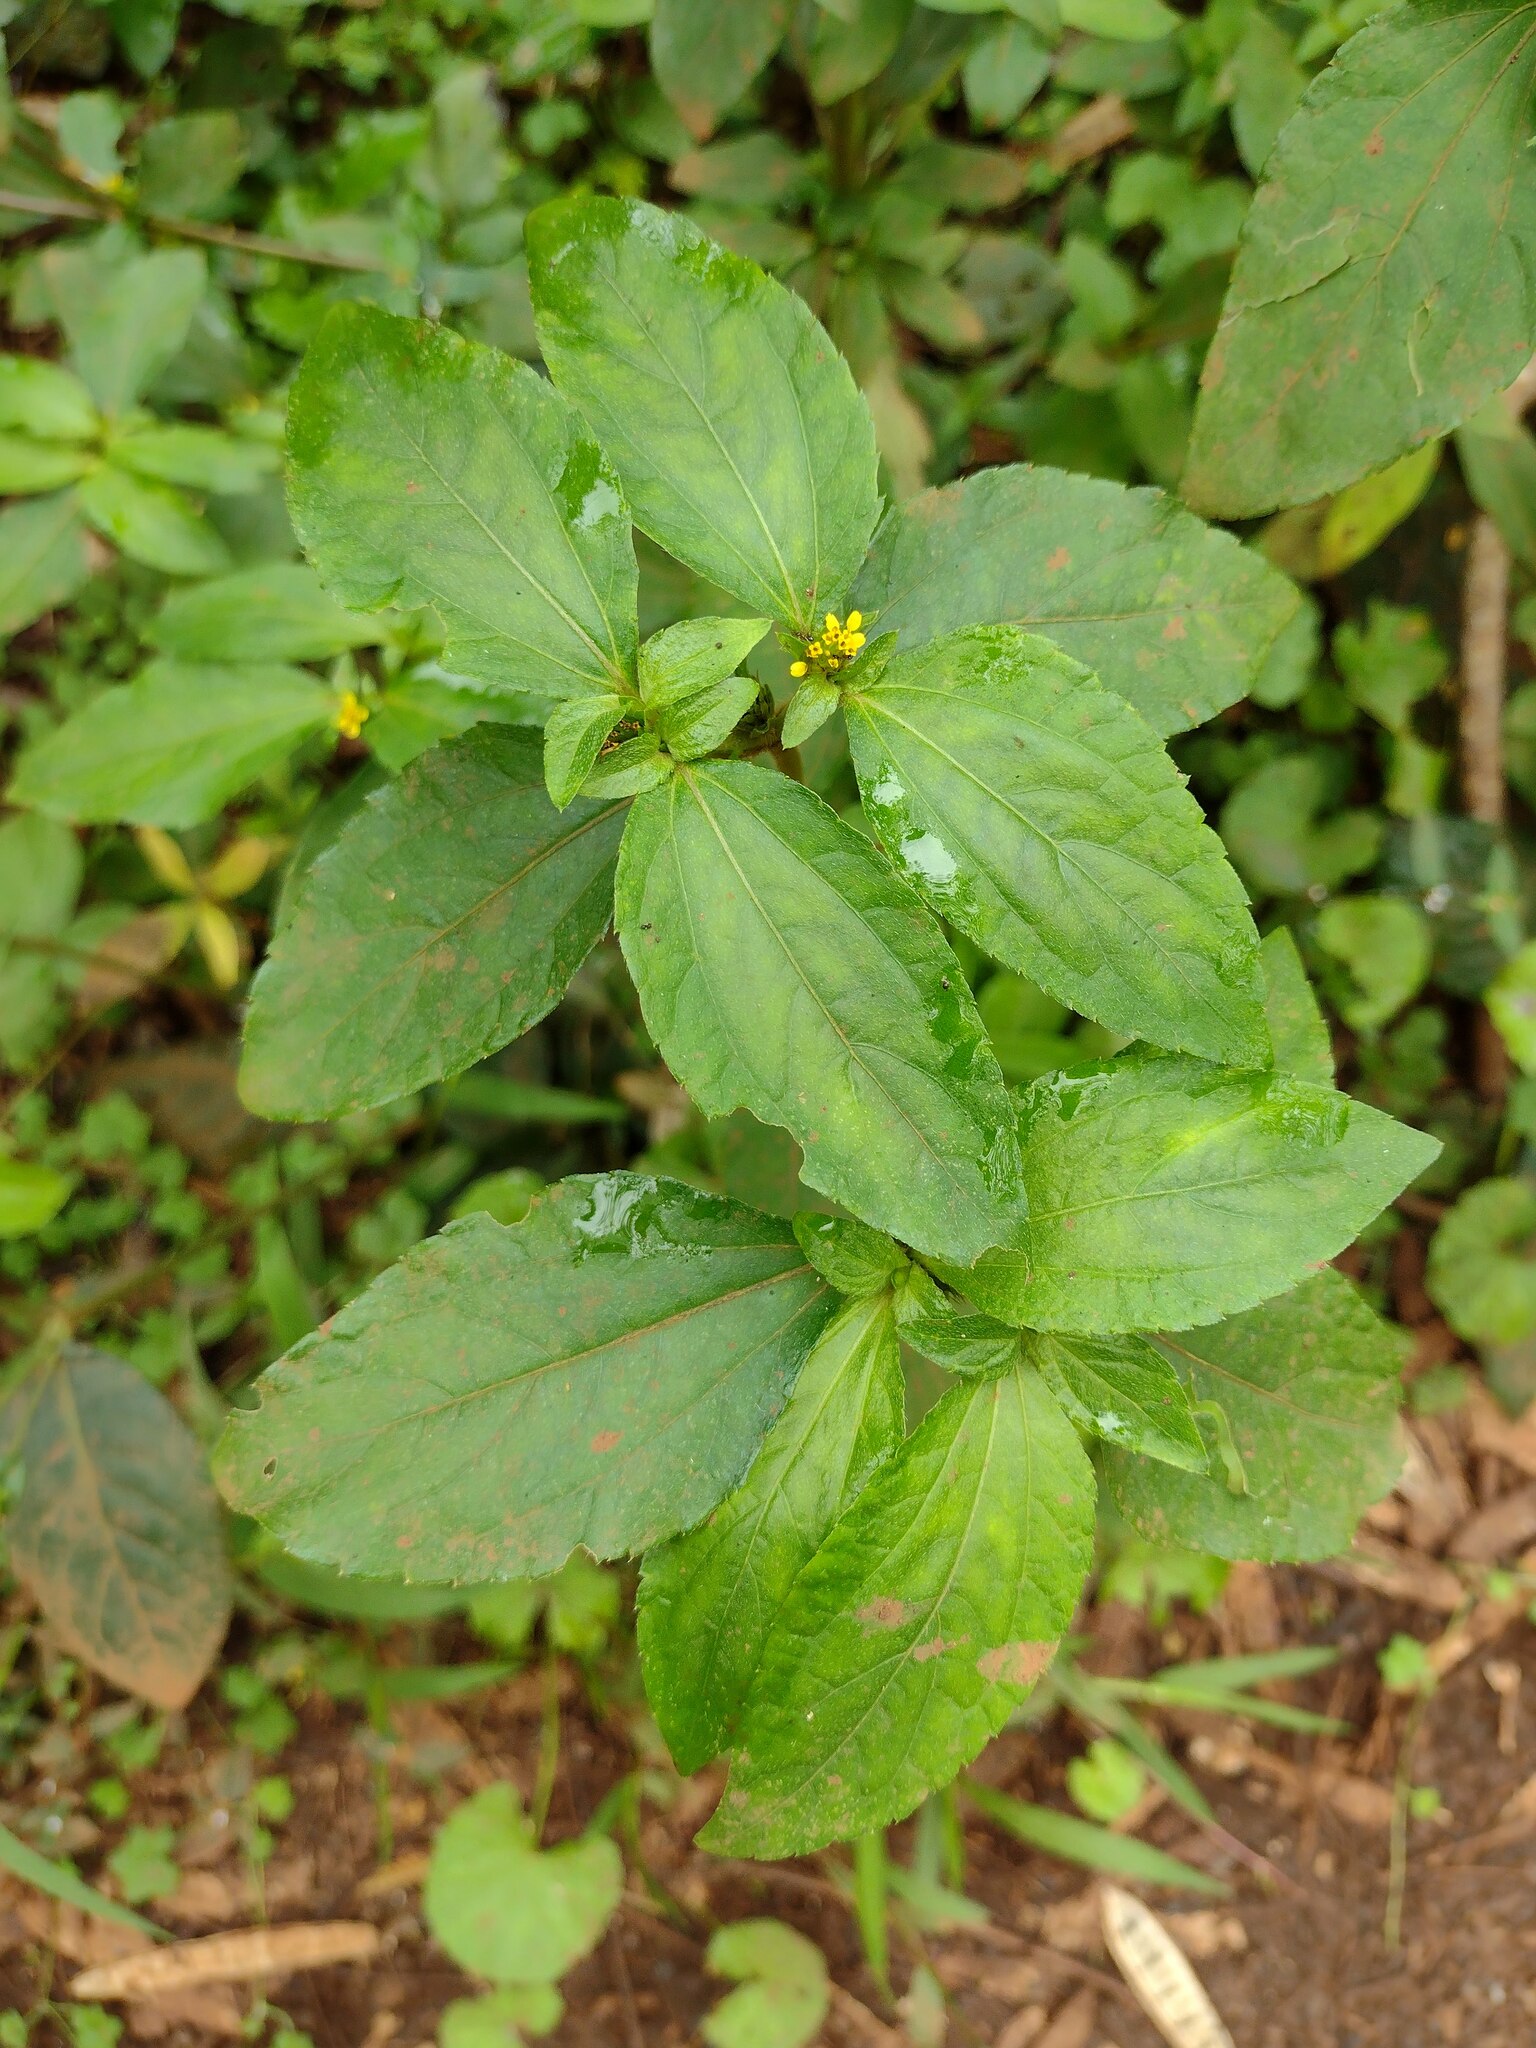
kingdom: Plantae
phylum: Tracheophyta
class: Magnoliopsida
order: Asterales
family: Asteraceae
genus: Synedrella
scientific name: Synedrella nodiflora
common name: Nodeweed
